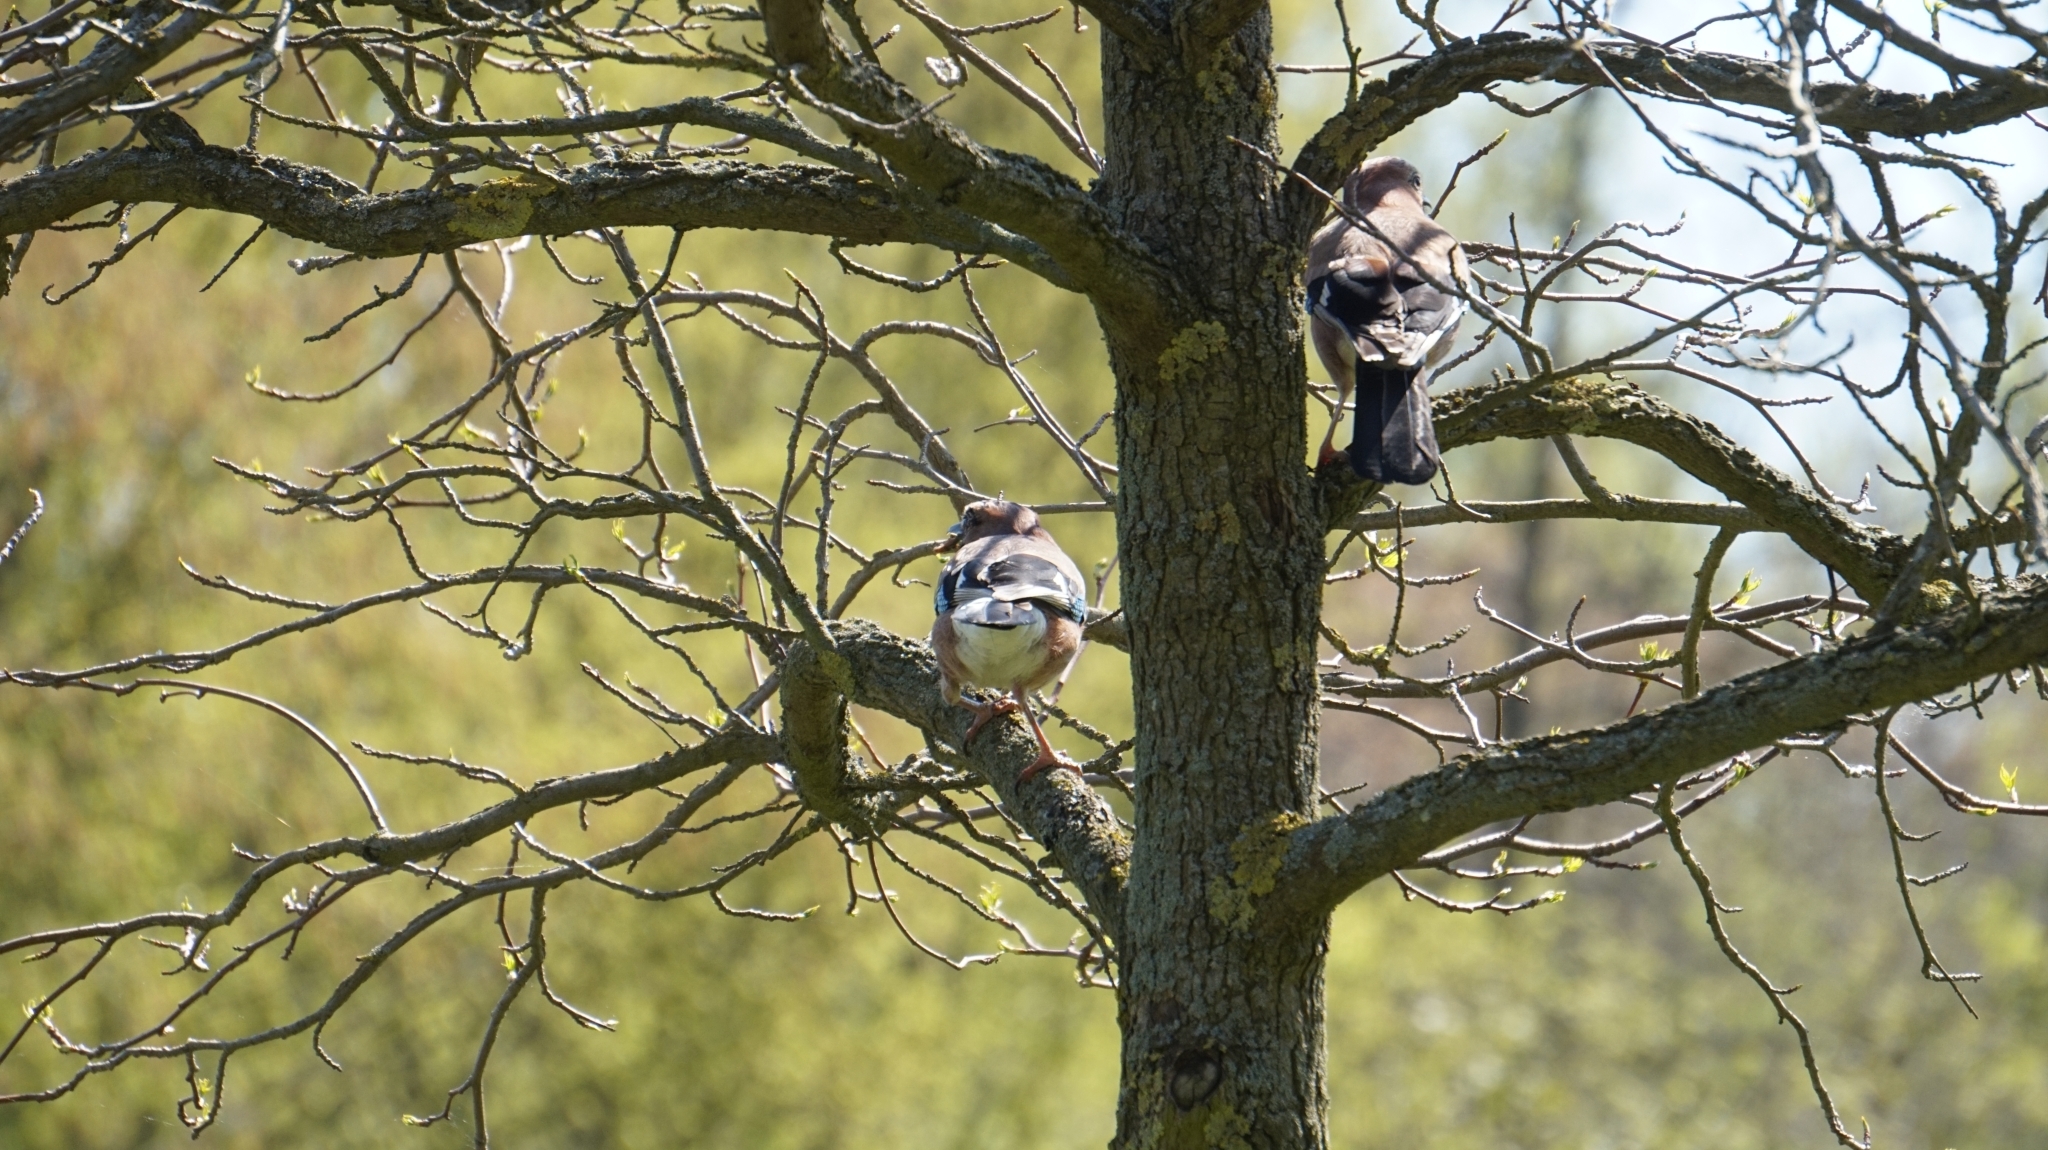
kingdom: Animalia
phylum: Chordata
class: Aves
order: Passeriformes
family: Corvidae
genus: Garrulus
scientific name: Garrulus glandarius
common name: Eurasian jay
